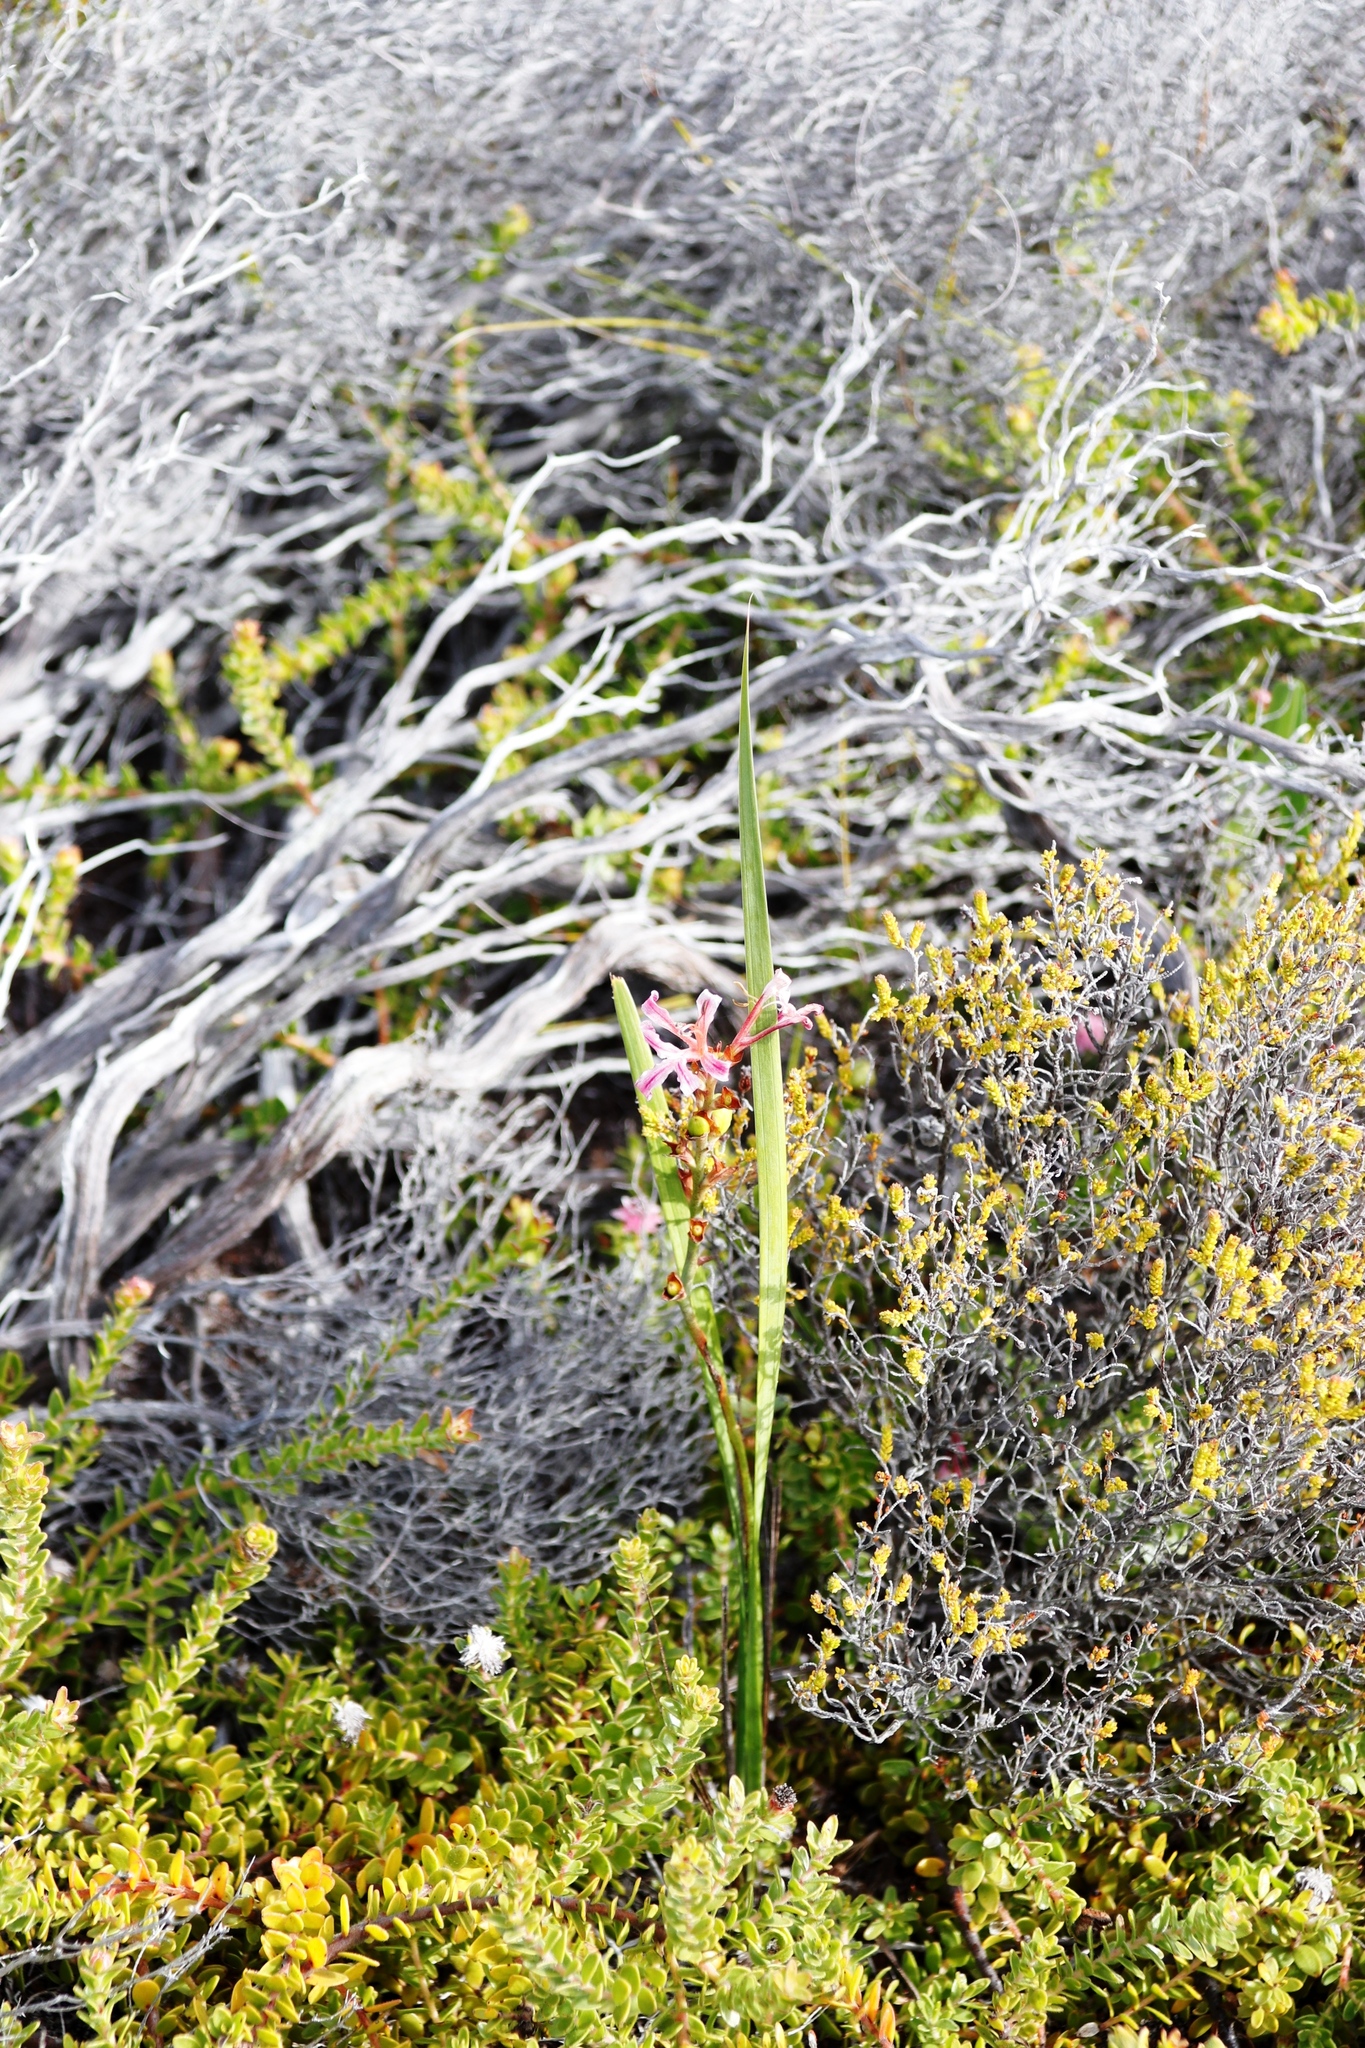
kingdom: Plantae
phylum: Tracheophyta
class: Liliopsida
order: Asparagales
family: Iridaceae
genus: Tritoniopsis
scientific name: Tritoniopsis dodii
